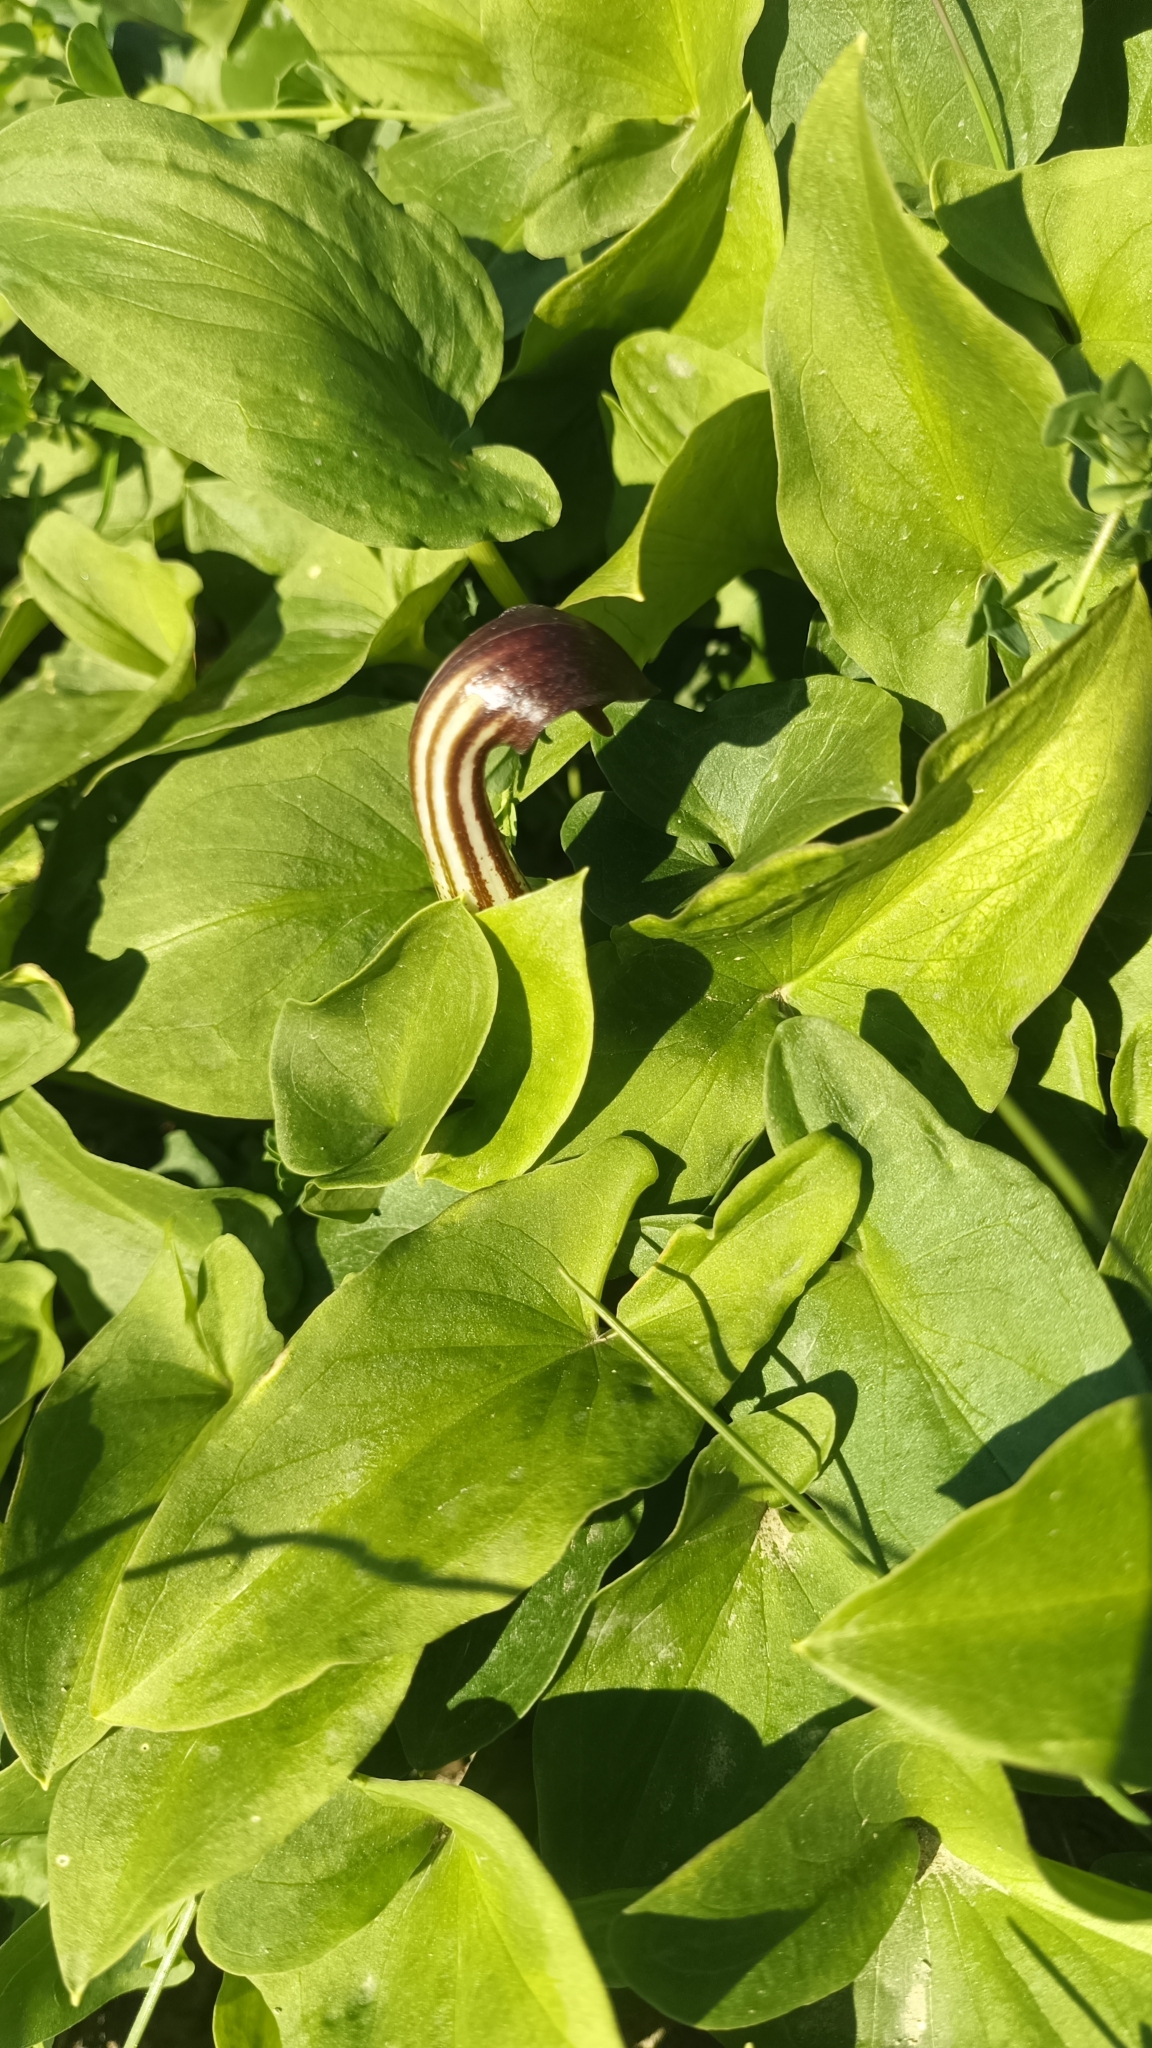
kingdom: Plantae
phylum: Tracheophyta
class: Liliopsida
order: Alismatales
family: Araceae
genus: Arisarum
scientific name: Arisarum vulgare
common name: Common arisarum
